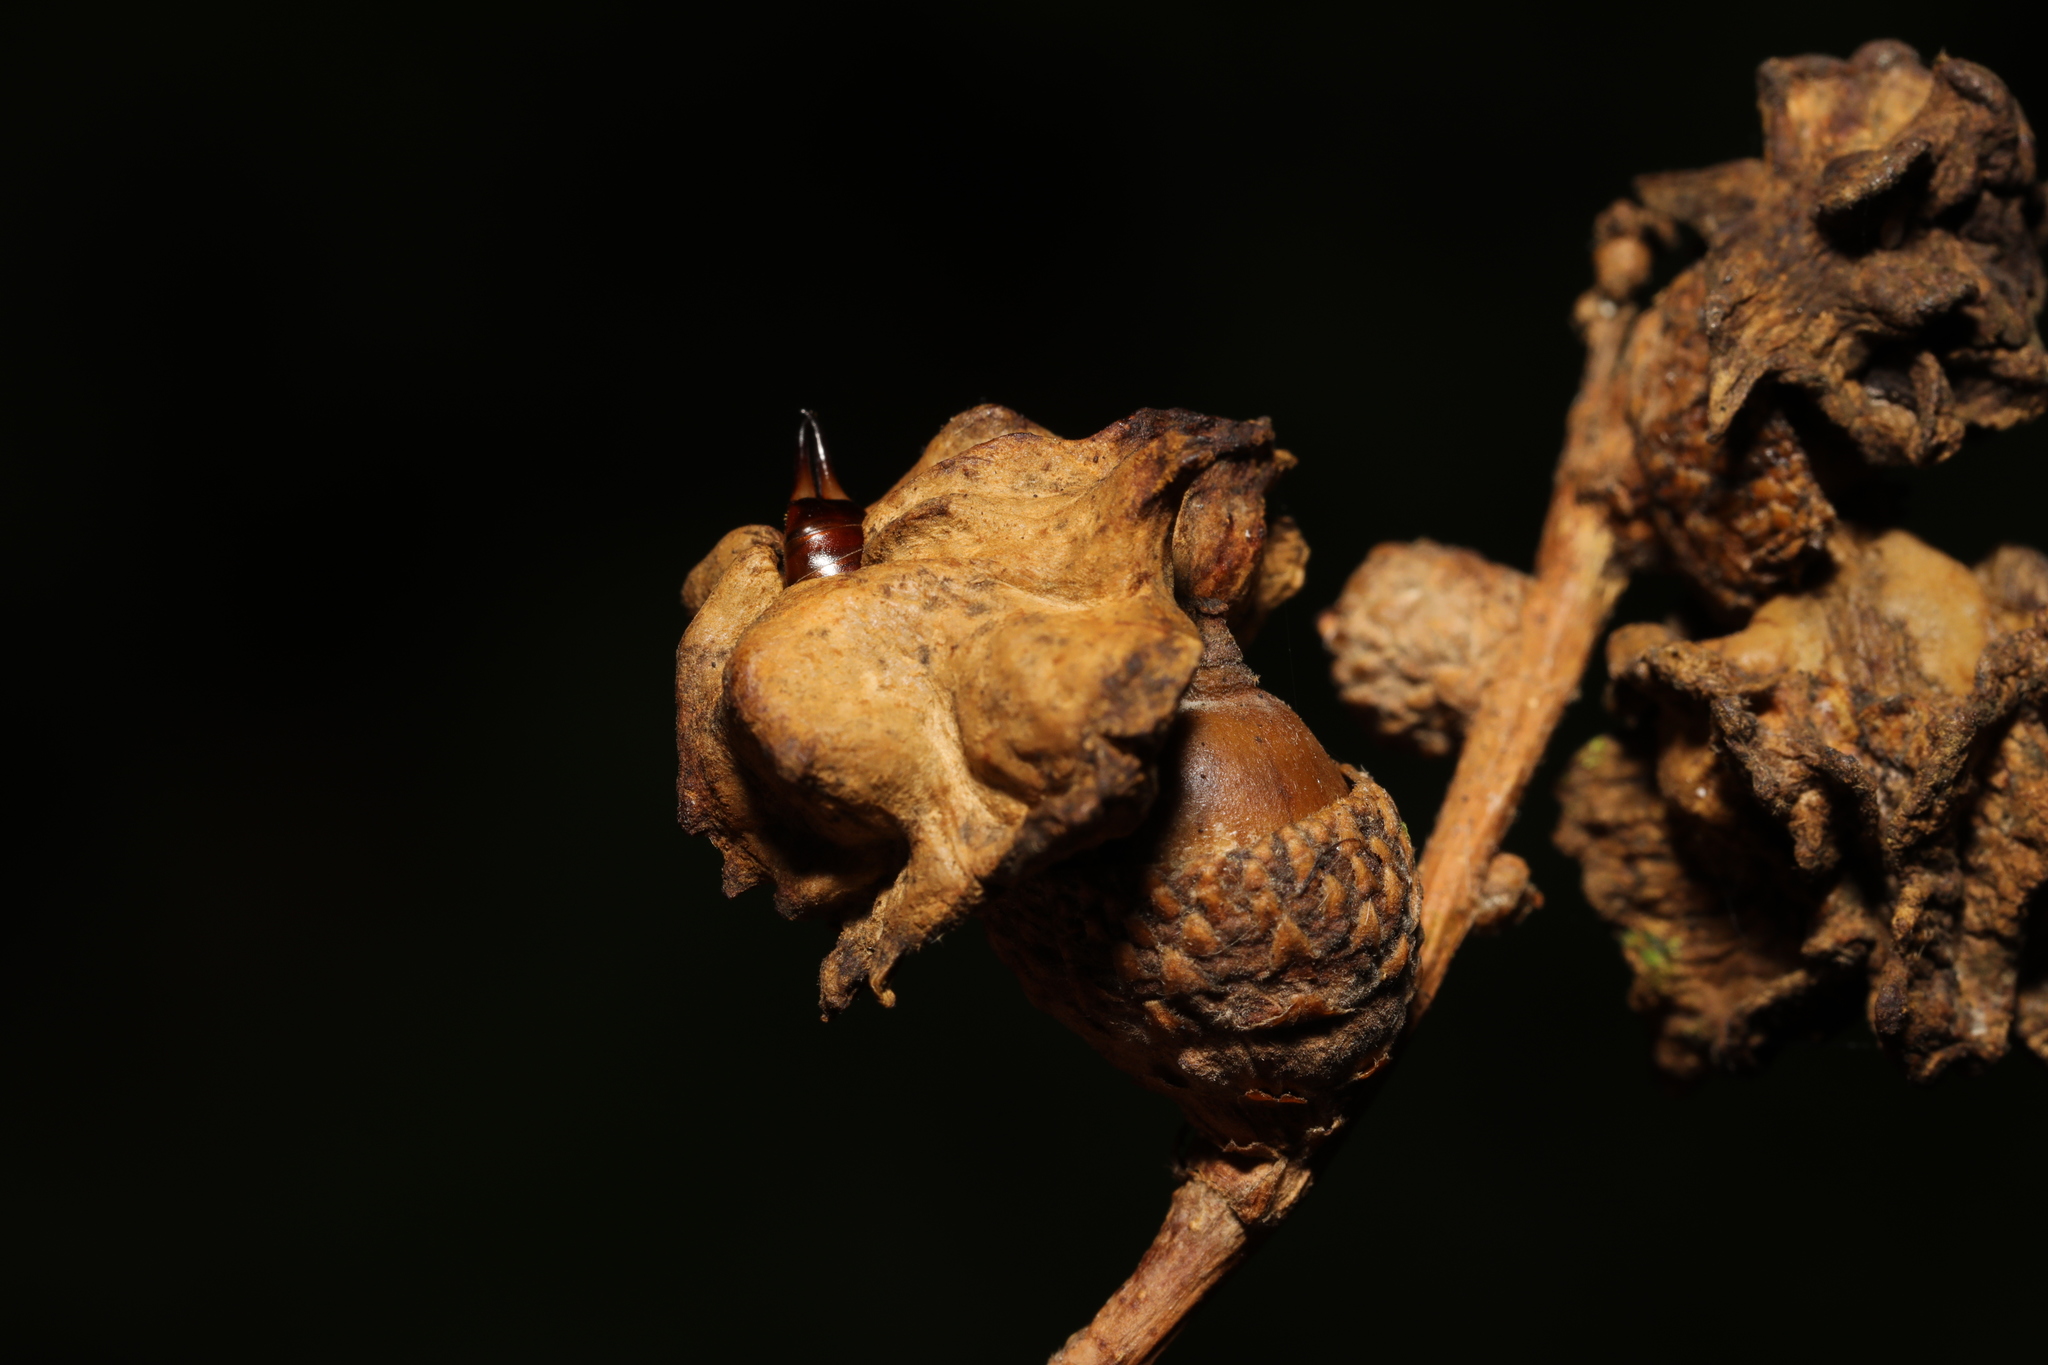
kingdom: Animalia
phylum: Arthropoda
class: Insecta
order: Hymenoptera
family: Cynipidae
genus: Andricus
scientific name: Andricus quercuscalicis
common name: Knopper gall
